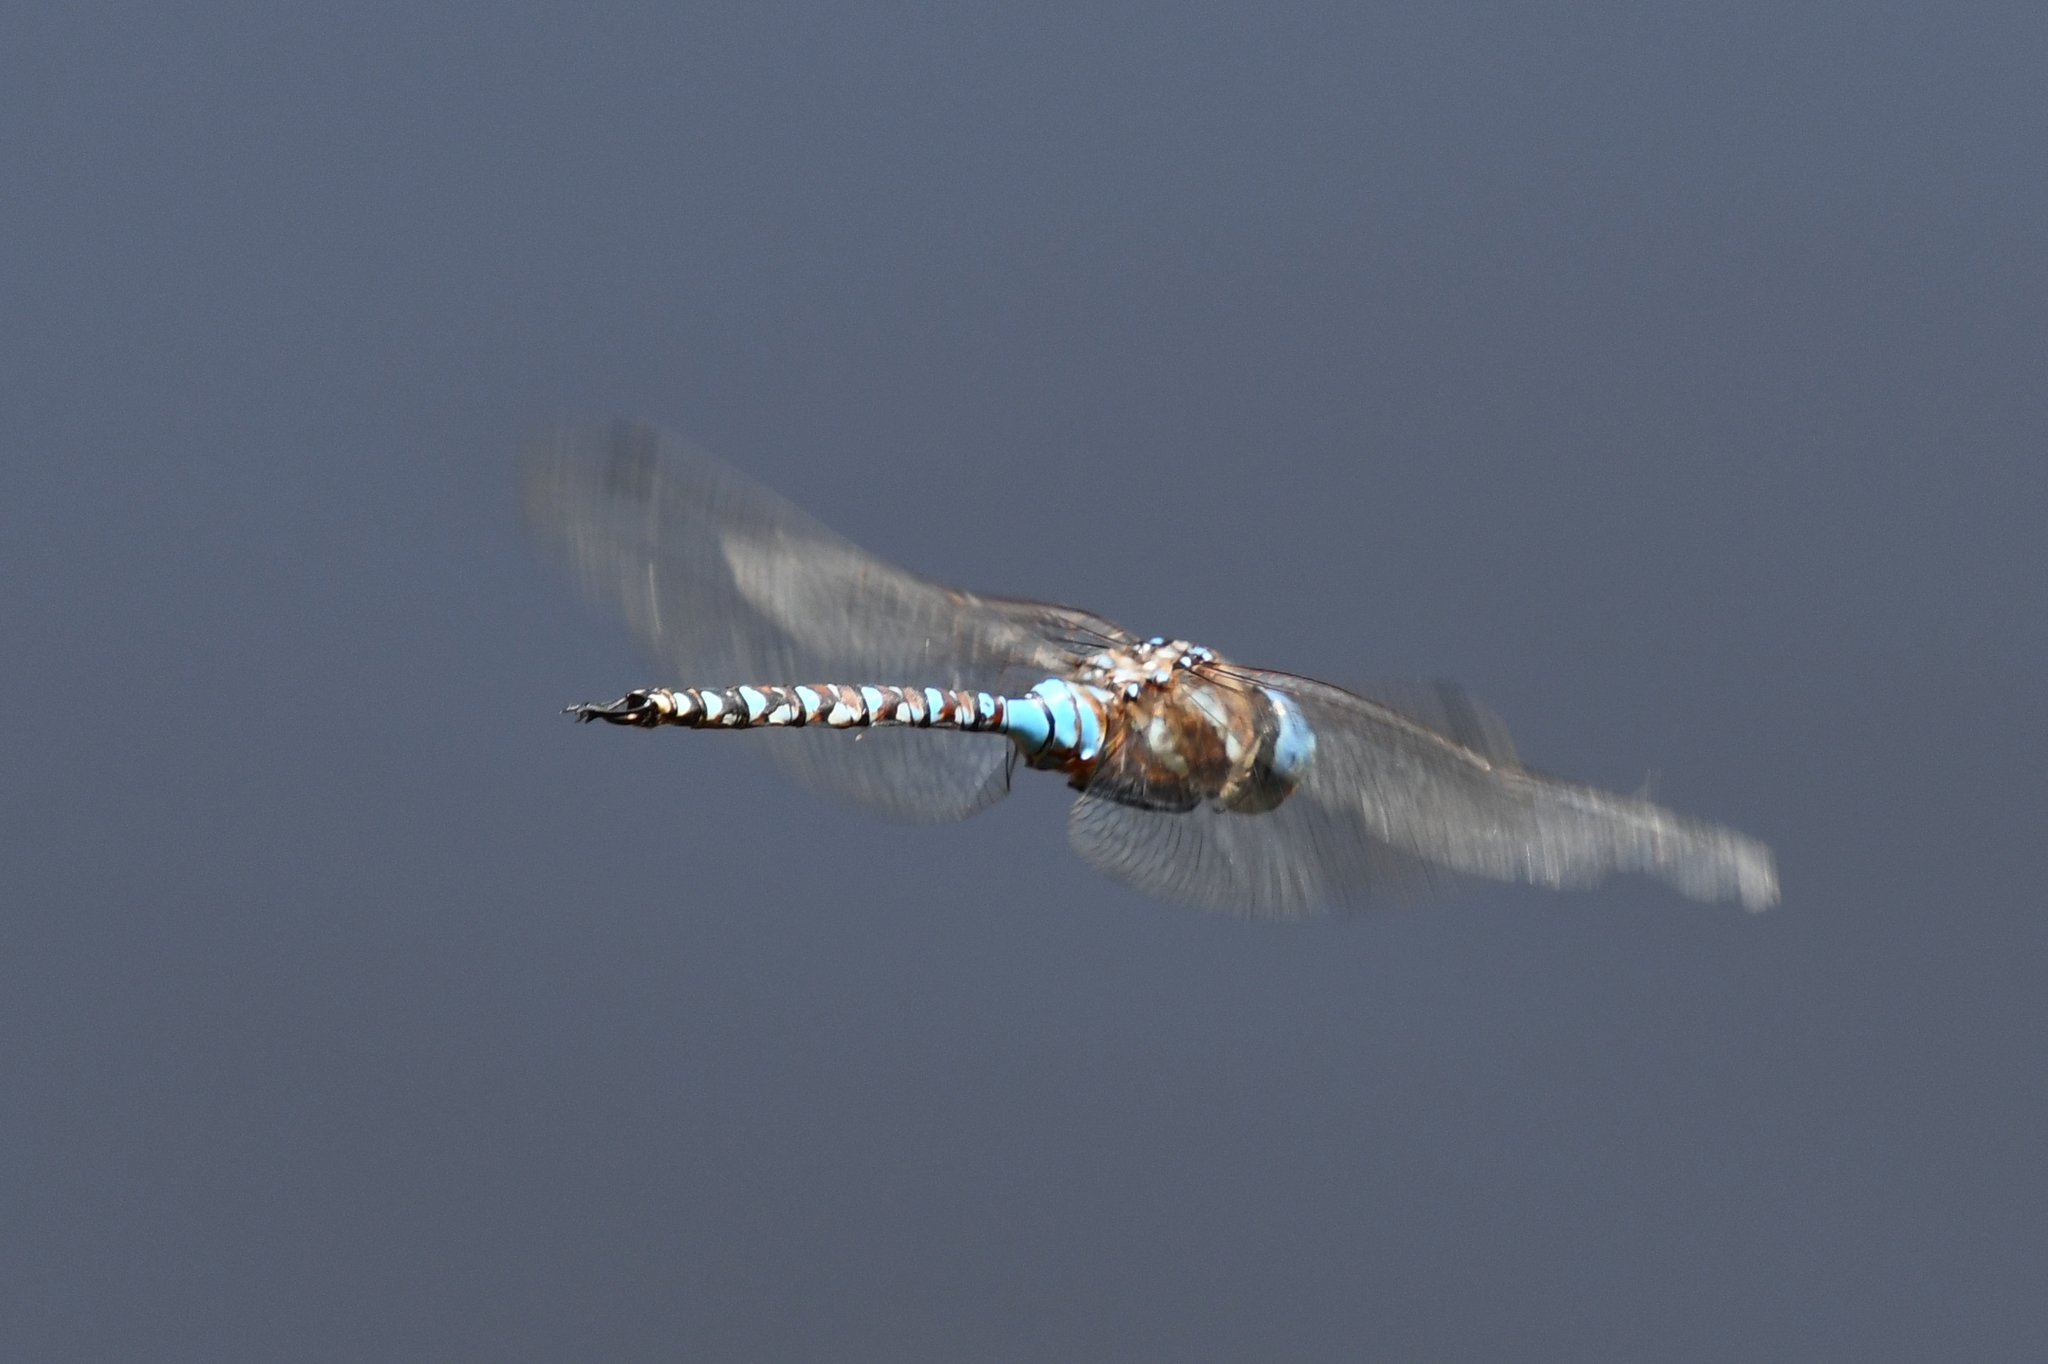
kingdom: Animalia
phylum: Arthropoda
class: Insecta
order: Odonata
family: Aeshnidae
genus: Rhionaeschna
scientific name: Rhionaeschna multicolor
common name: Blue-eyed darner
